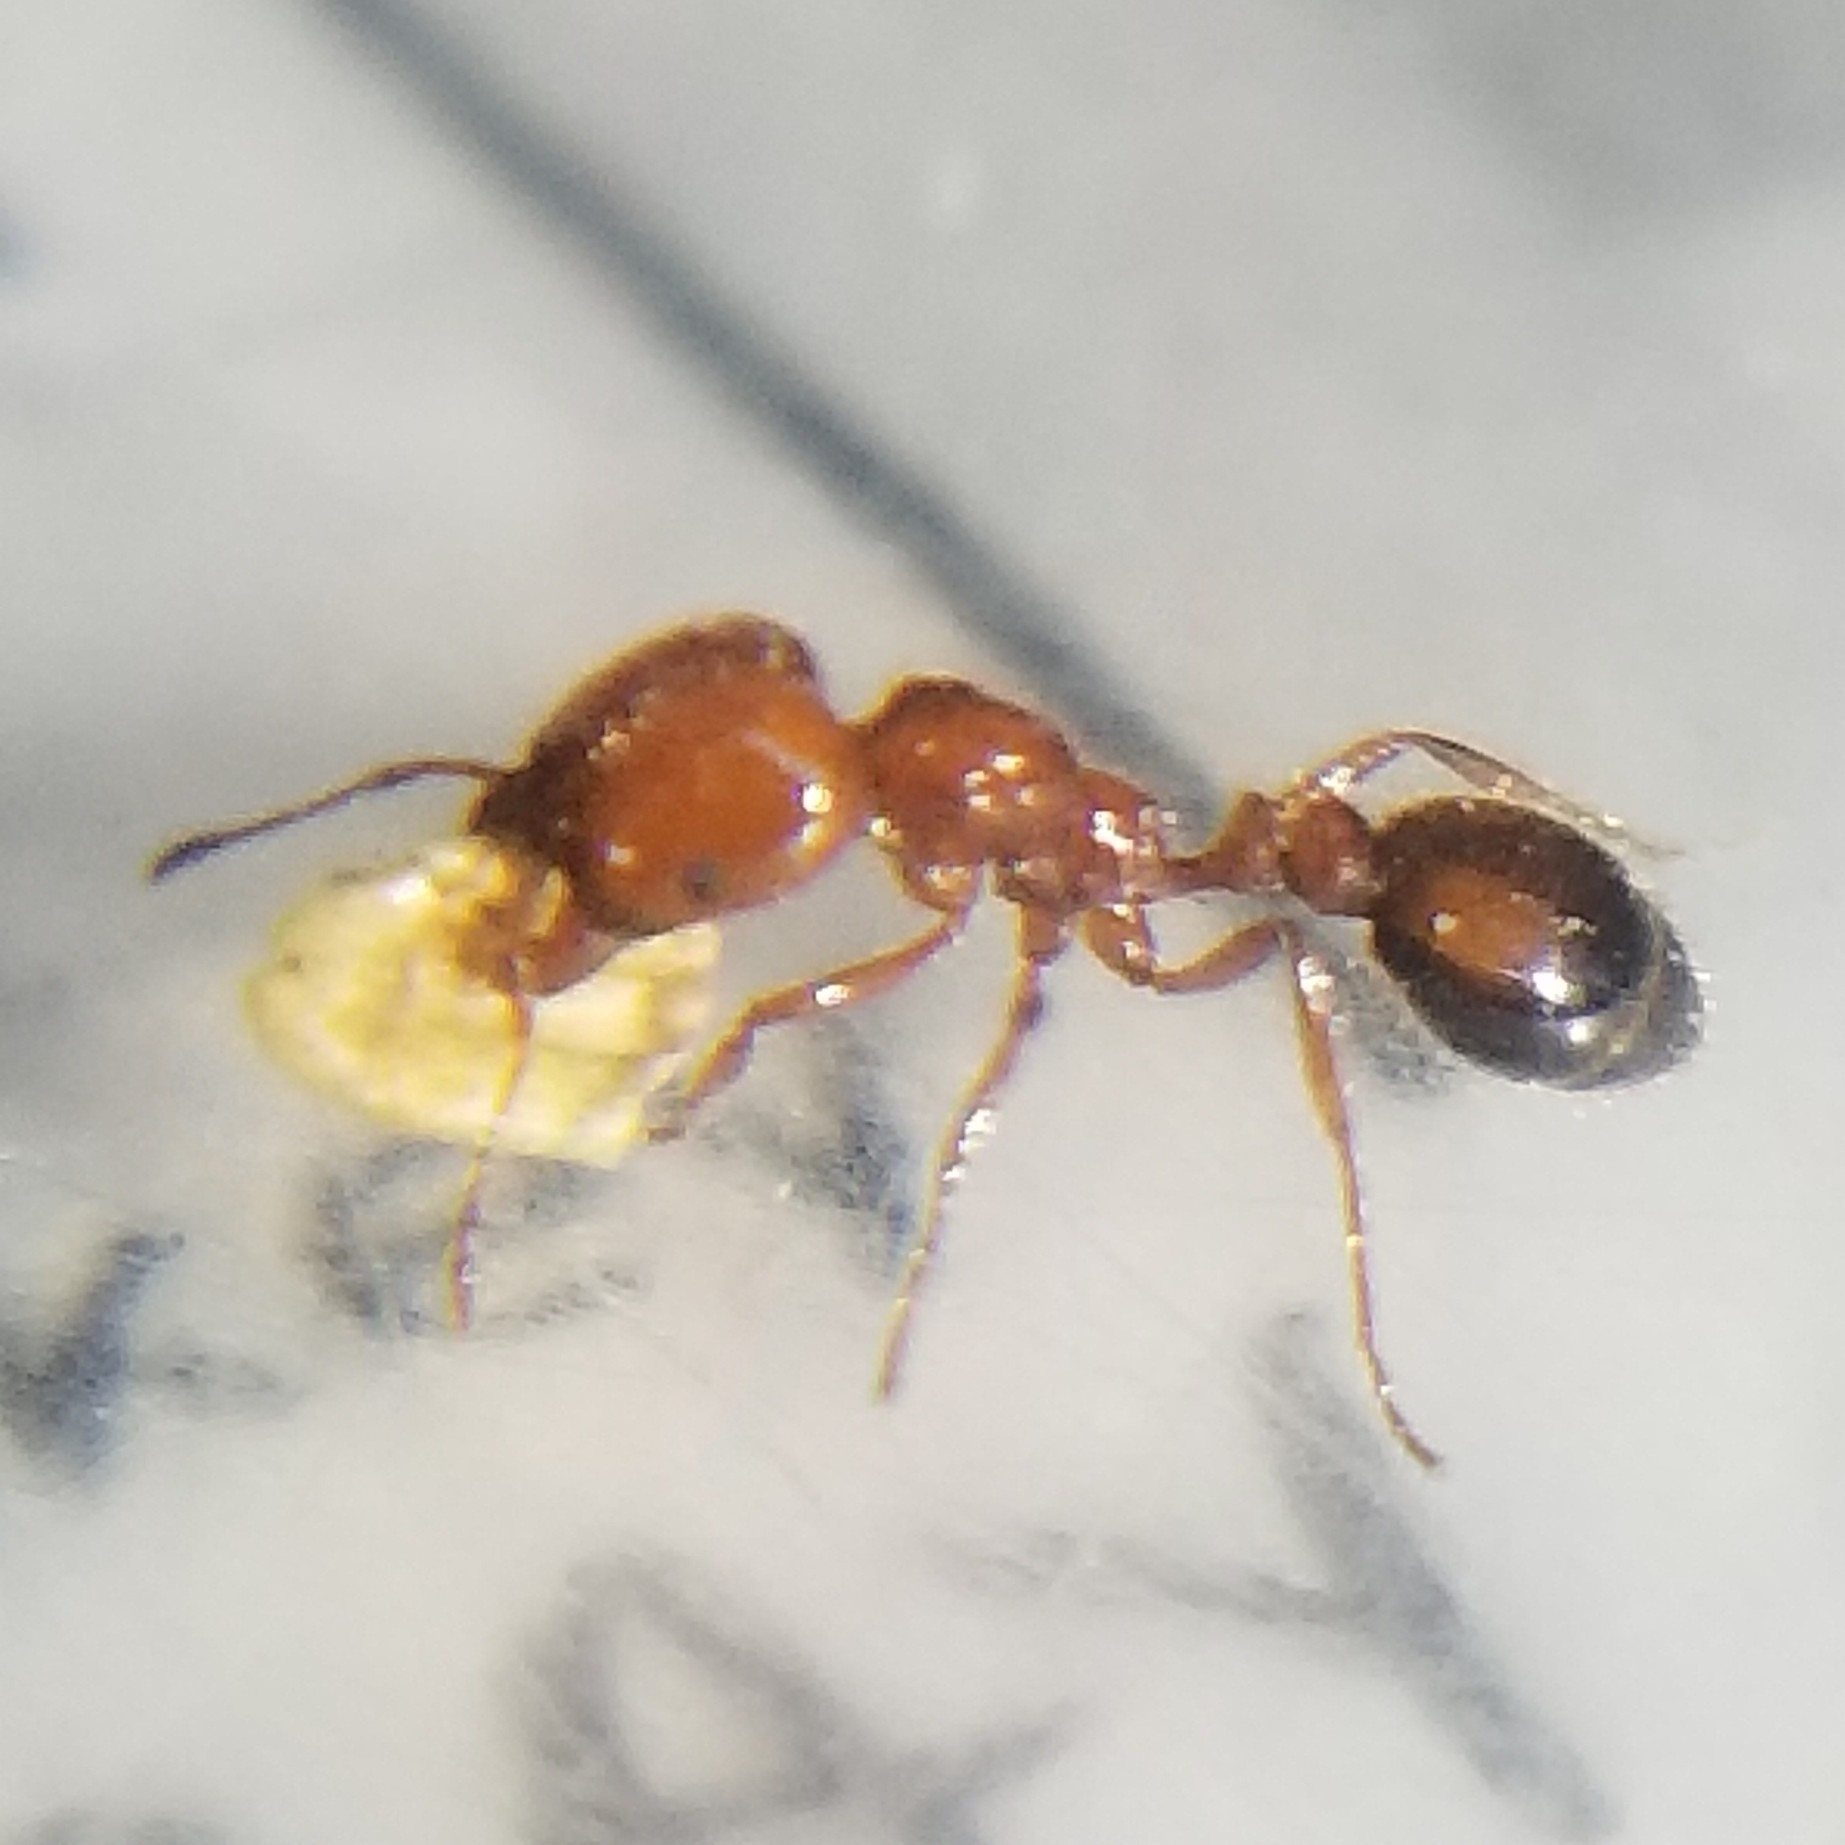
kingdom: Animalia
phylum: Arthropoda
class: Insecta
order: Hymenoptera
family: Formicidae
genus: Solenopsis
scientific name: Solenopsis xyloni
